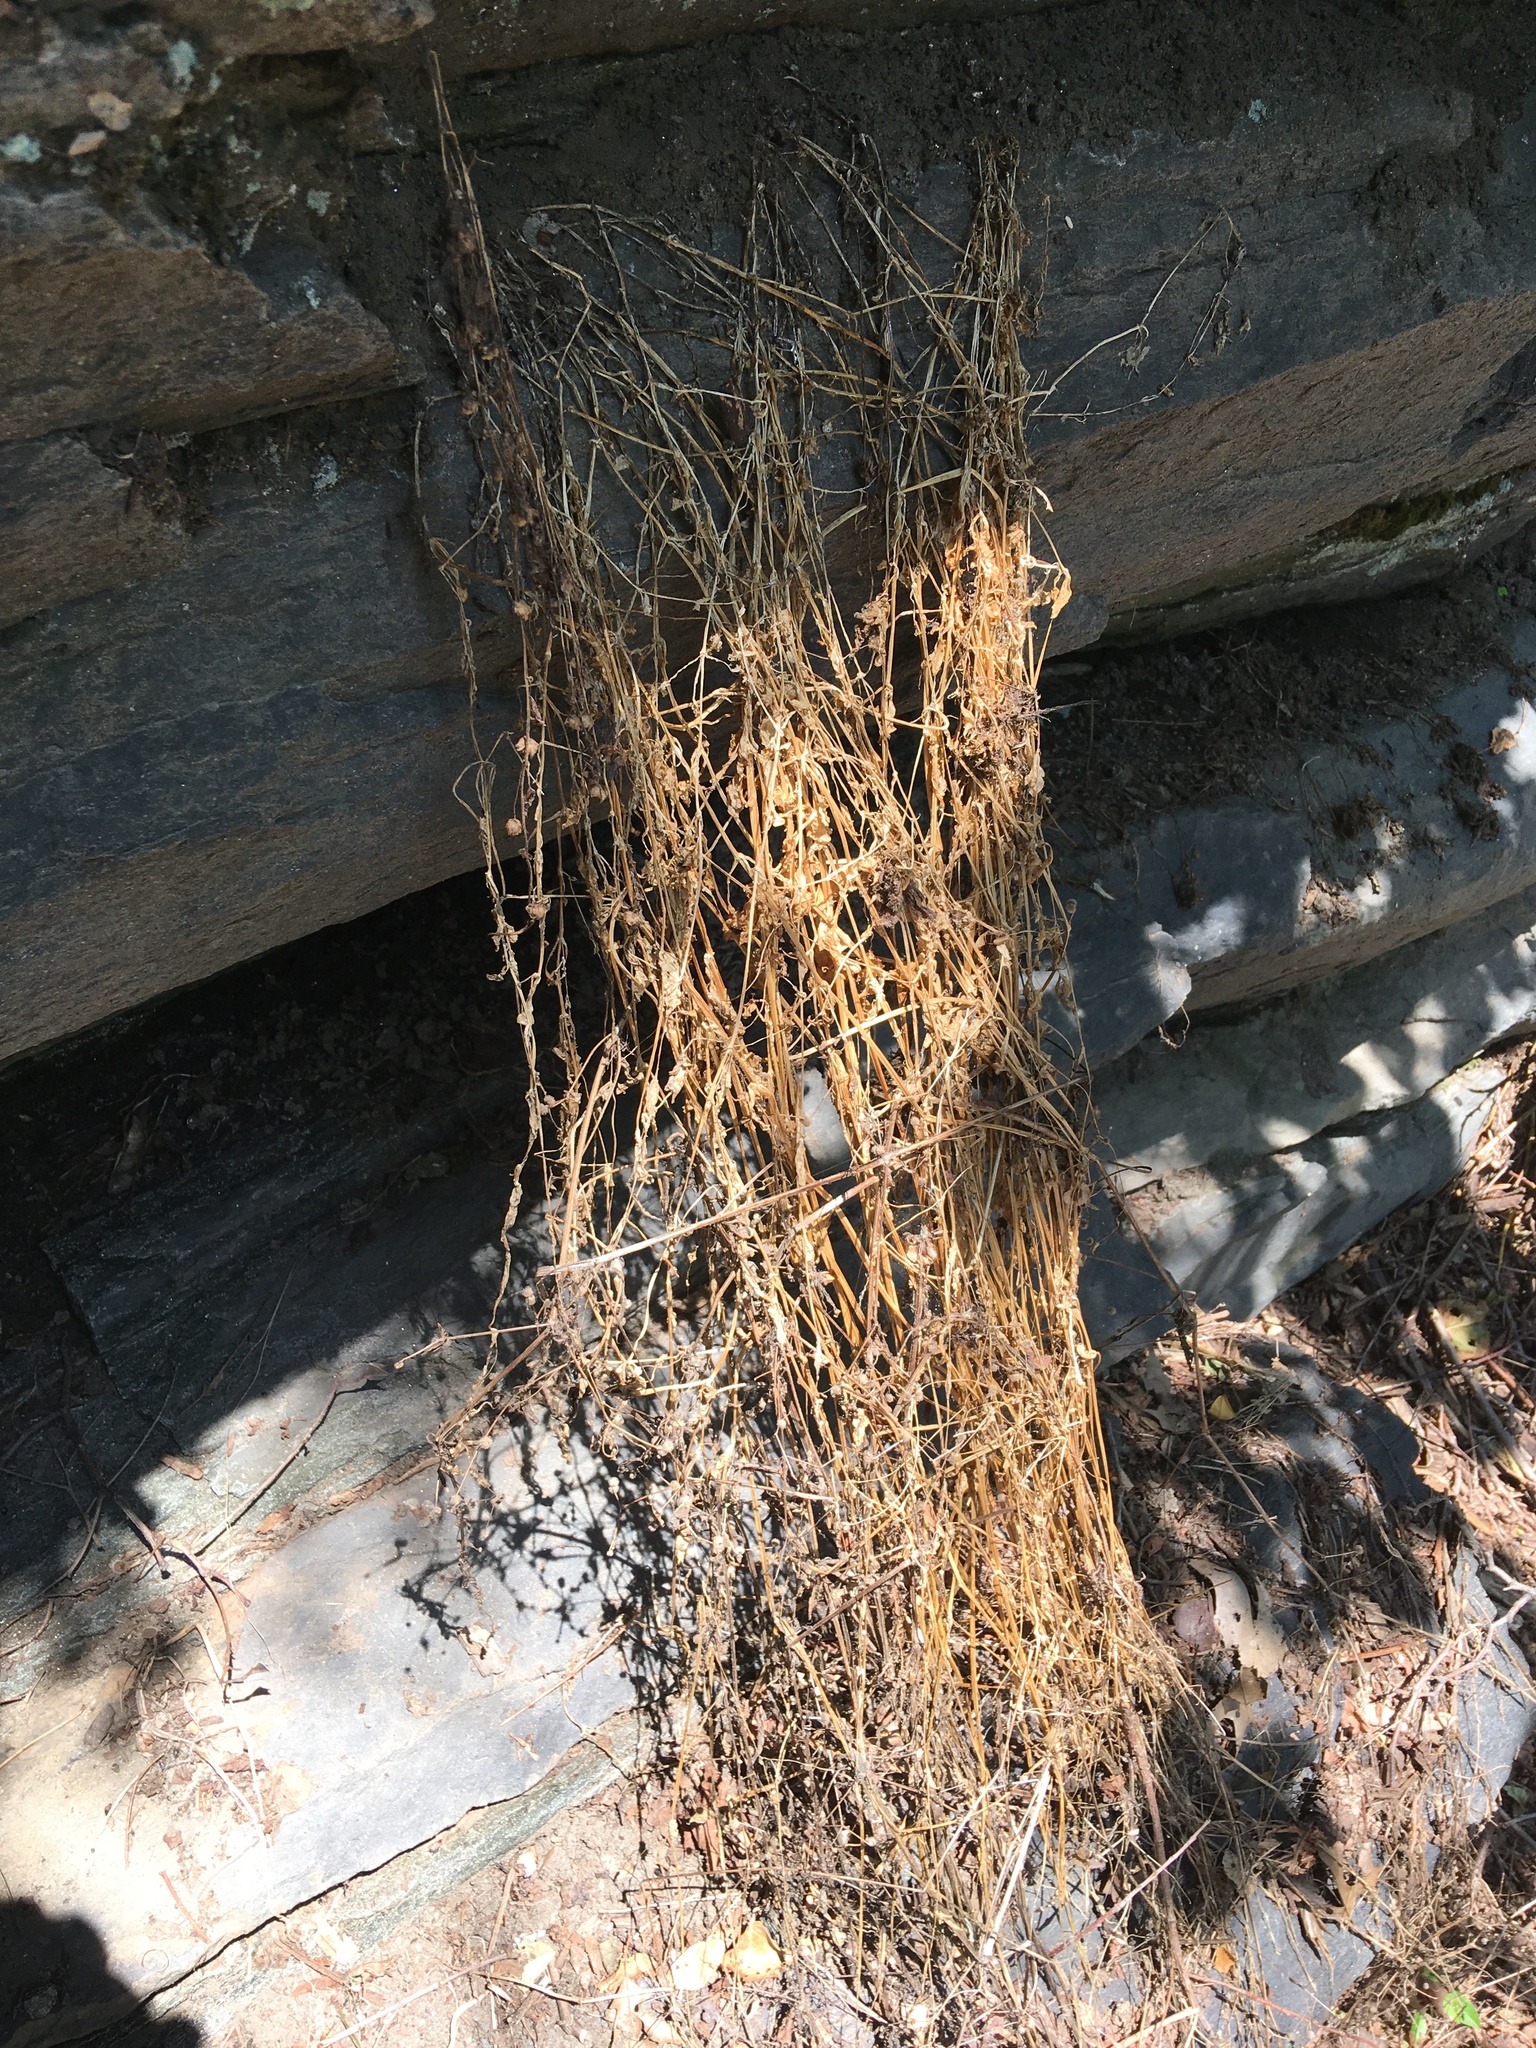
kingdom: Plantae
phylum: Tracheophyta
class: Magnoliopsida
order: Gentianales
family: Rubiaceae
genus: Galium
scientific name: Galium aparine
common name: Cleavers
